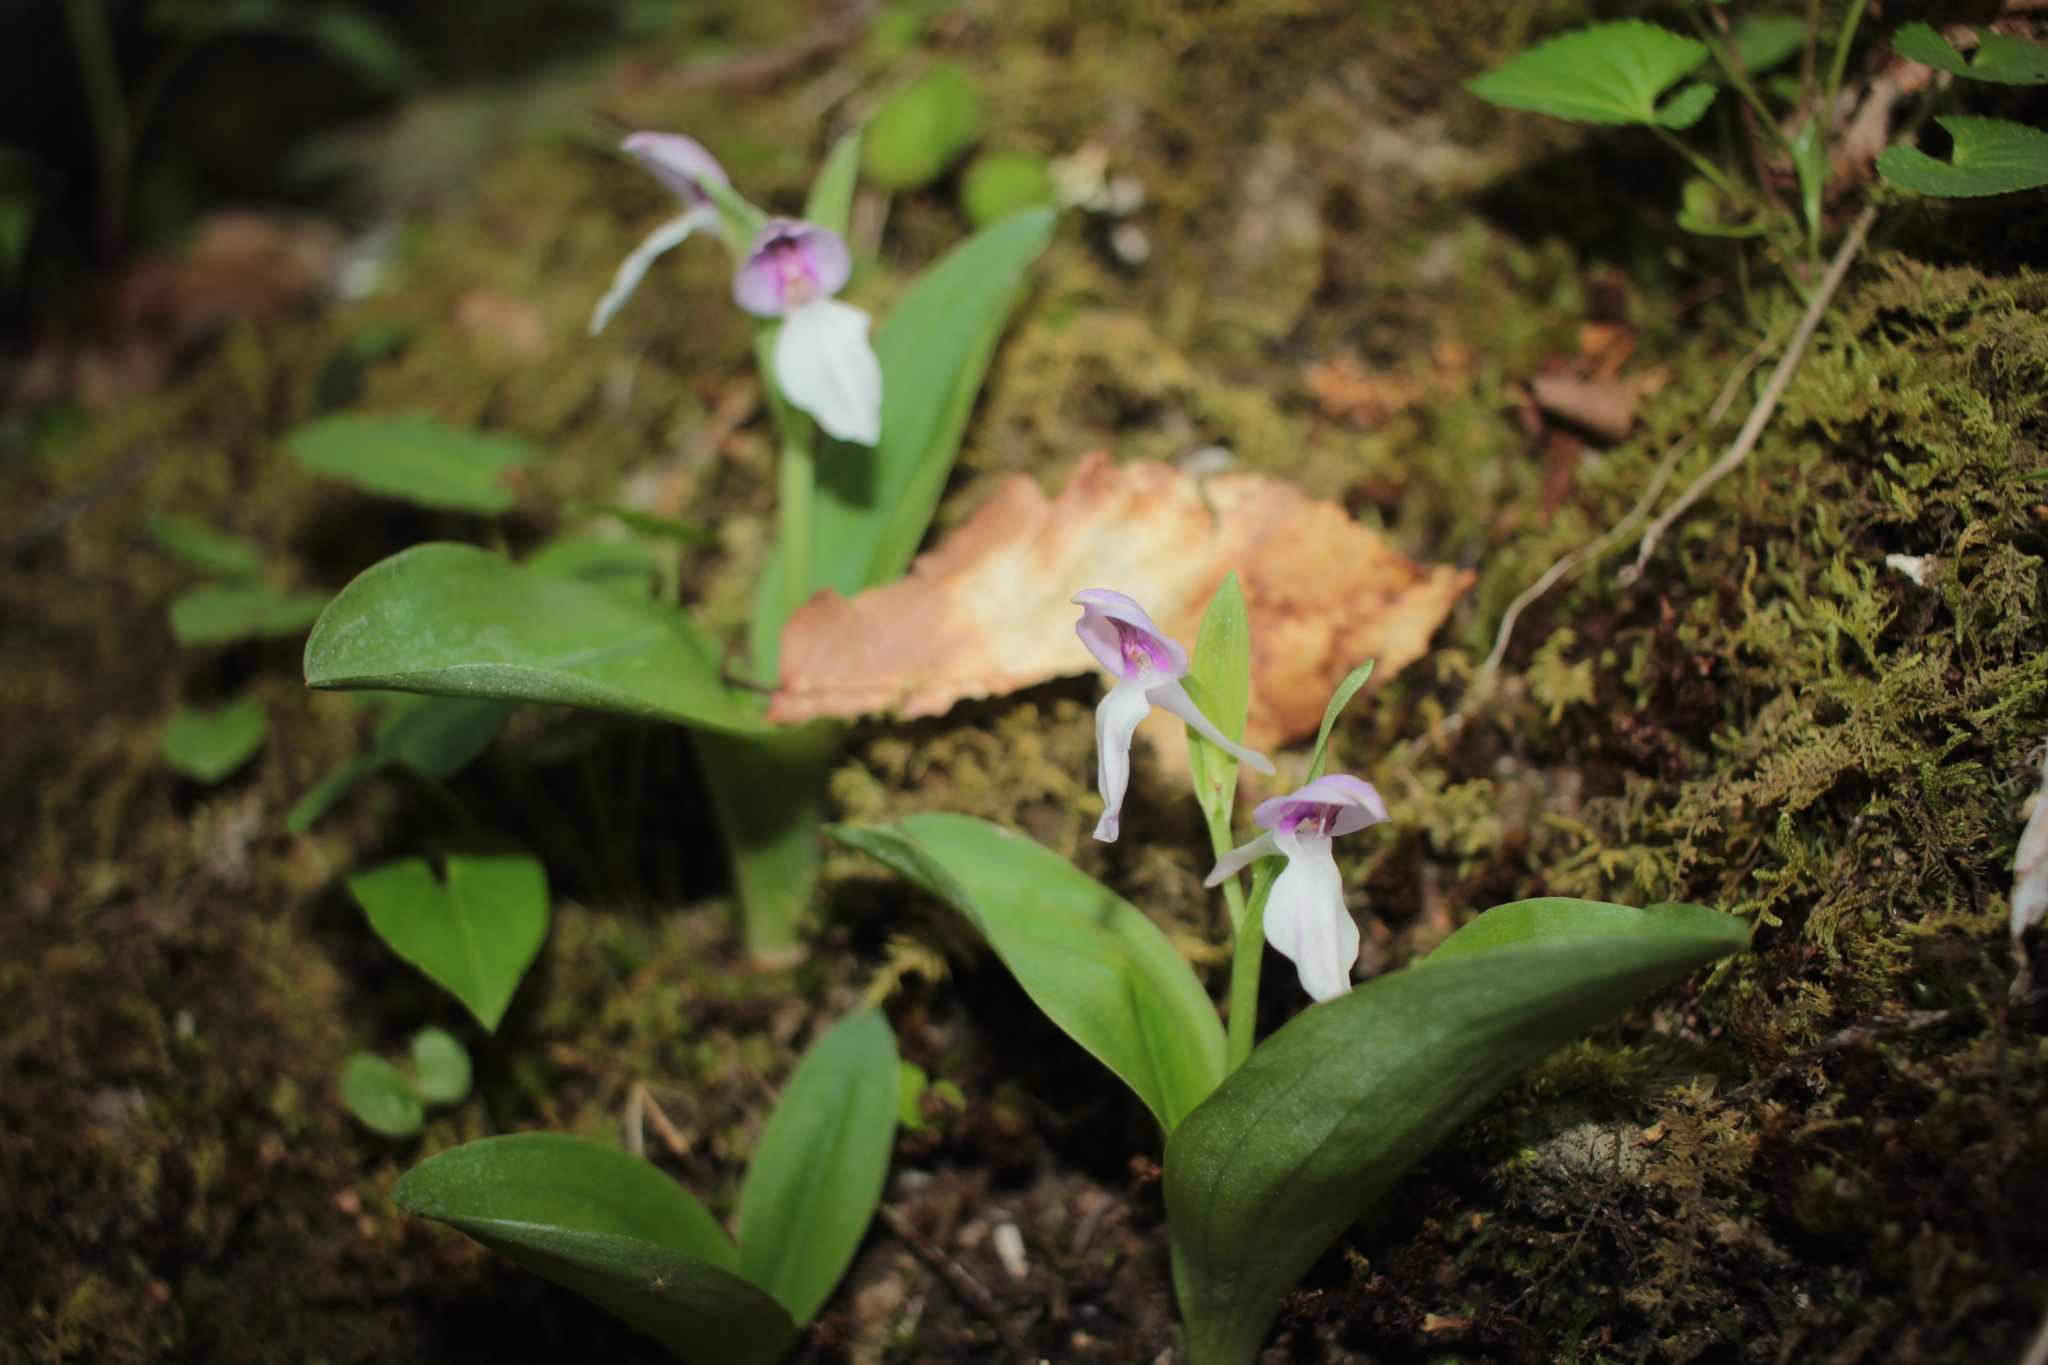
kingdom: Plantae
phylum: Tracheophyta
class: Liliopsida
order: Asparagales
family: Orchidaceae
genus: Galearis
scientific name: Galearis spectabilis
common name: Purple-hooded orchis
